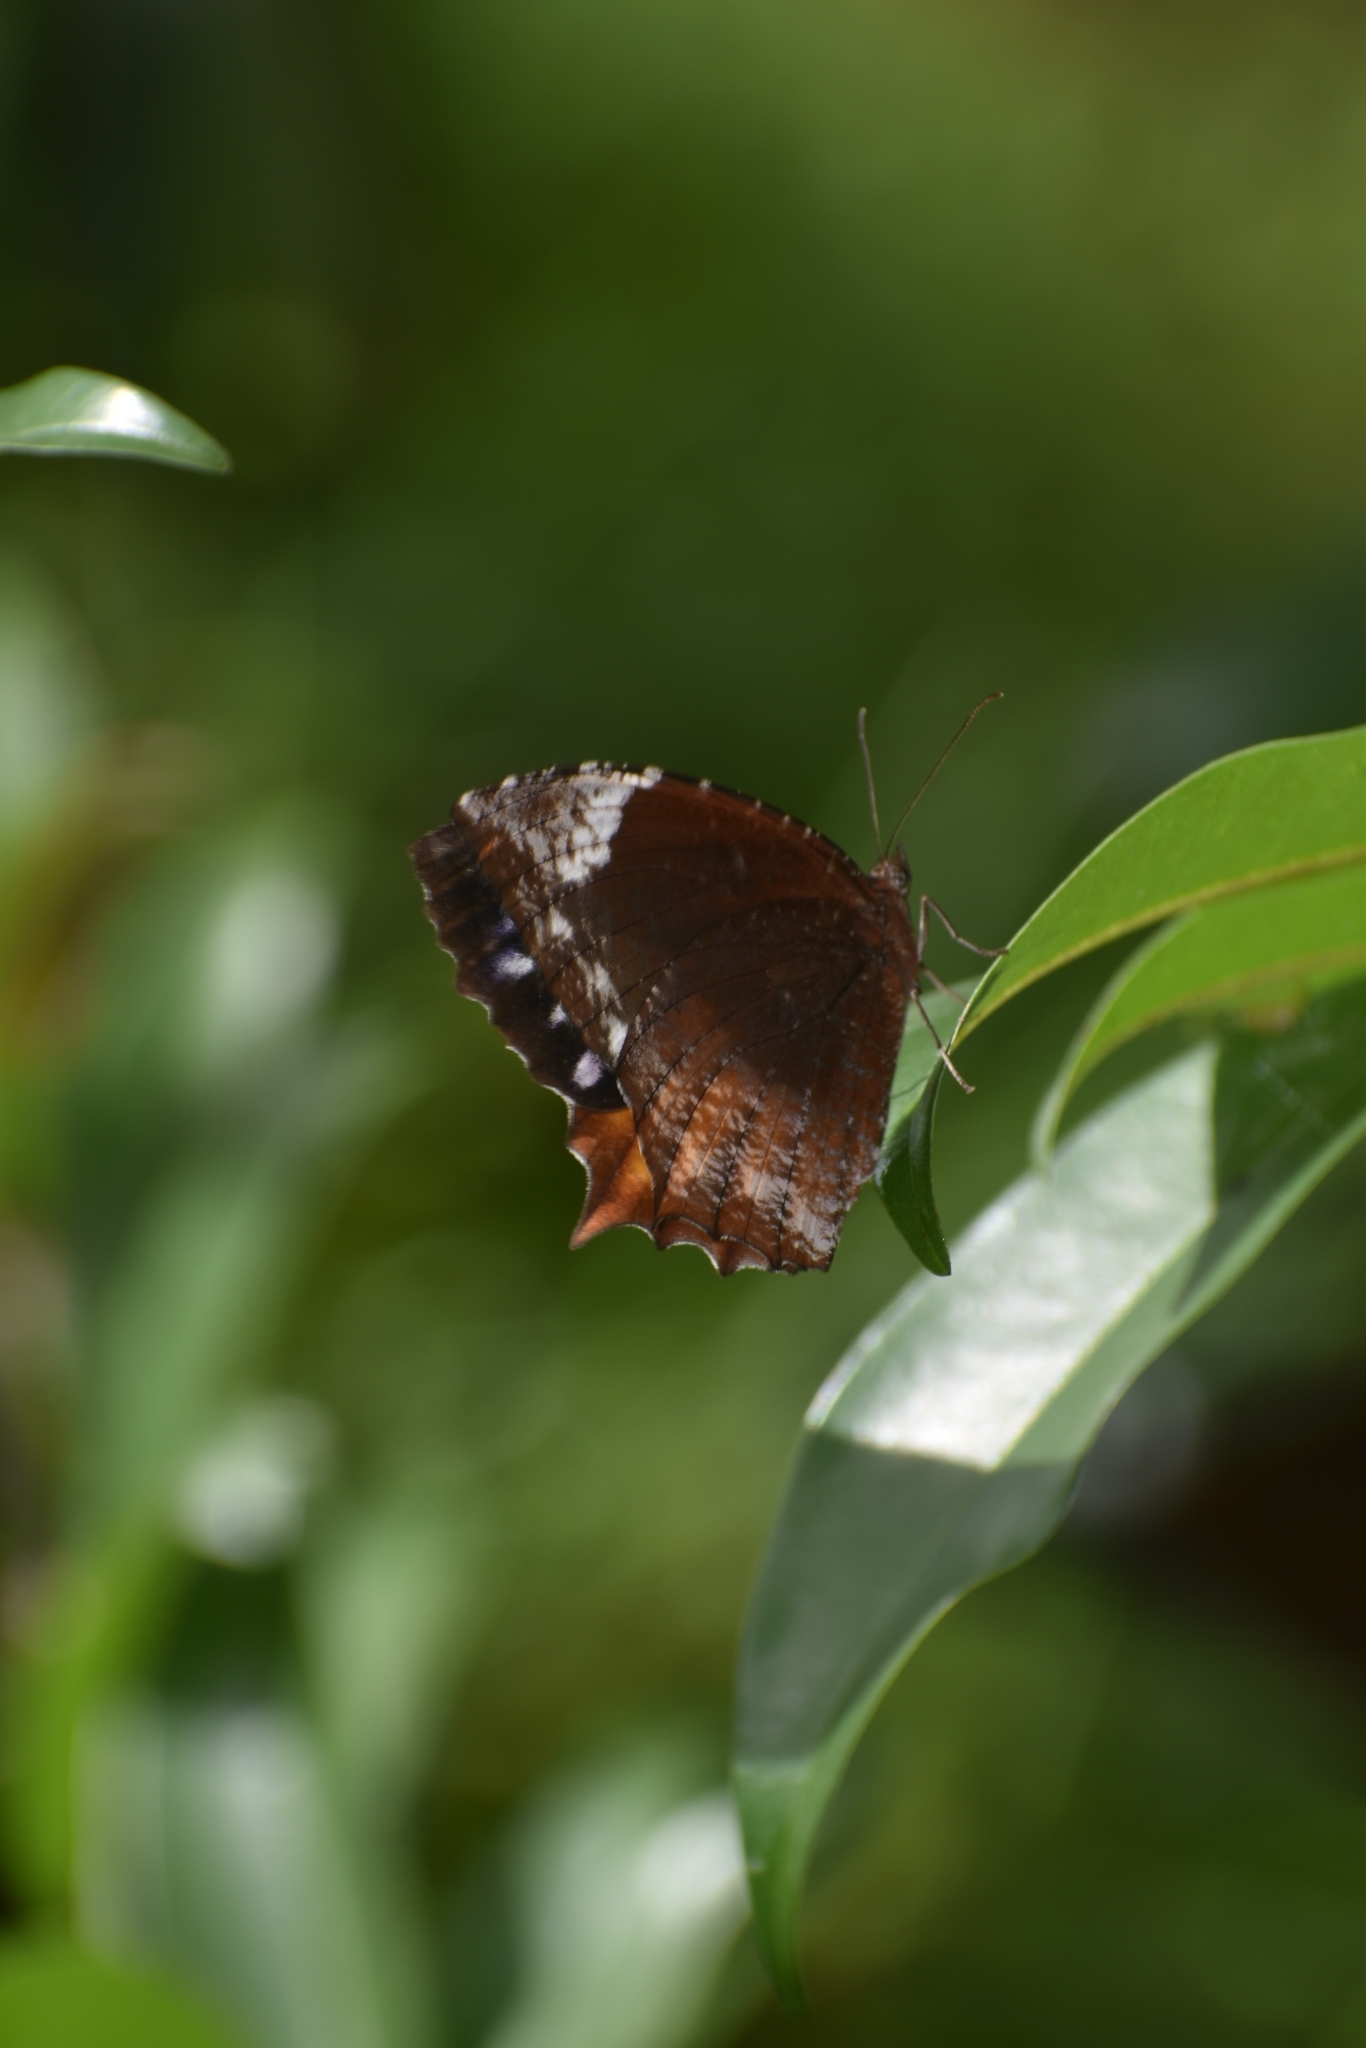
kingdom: Animalia
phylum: Arthropoda
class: Insecta
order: Lepidoptera
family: Nymphalidae
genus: Elymnias
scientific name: Elymnias caudata
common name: Tailed palmfly
